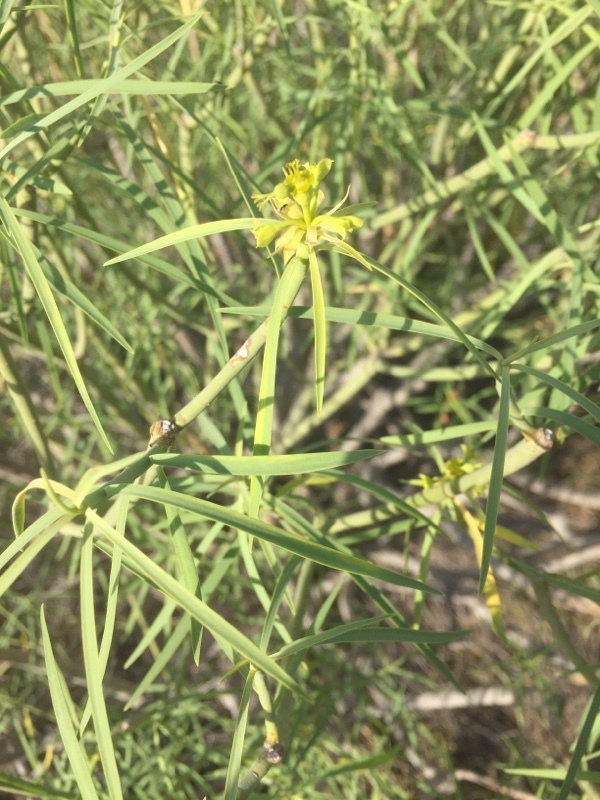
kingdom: Plantae
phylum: Tracheophyta
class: Magnoliopsida
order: Malpighiales
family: Euphorbiaceae
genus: Euphorbia
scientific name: Euphorbia lamarckii
